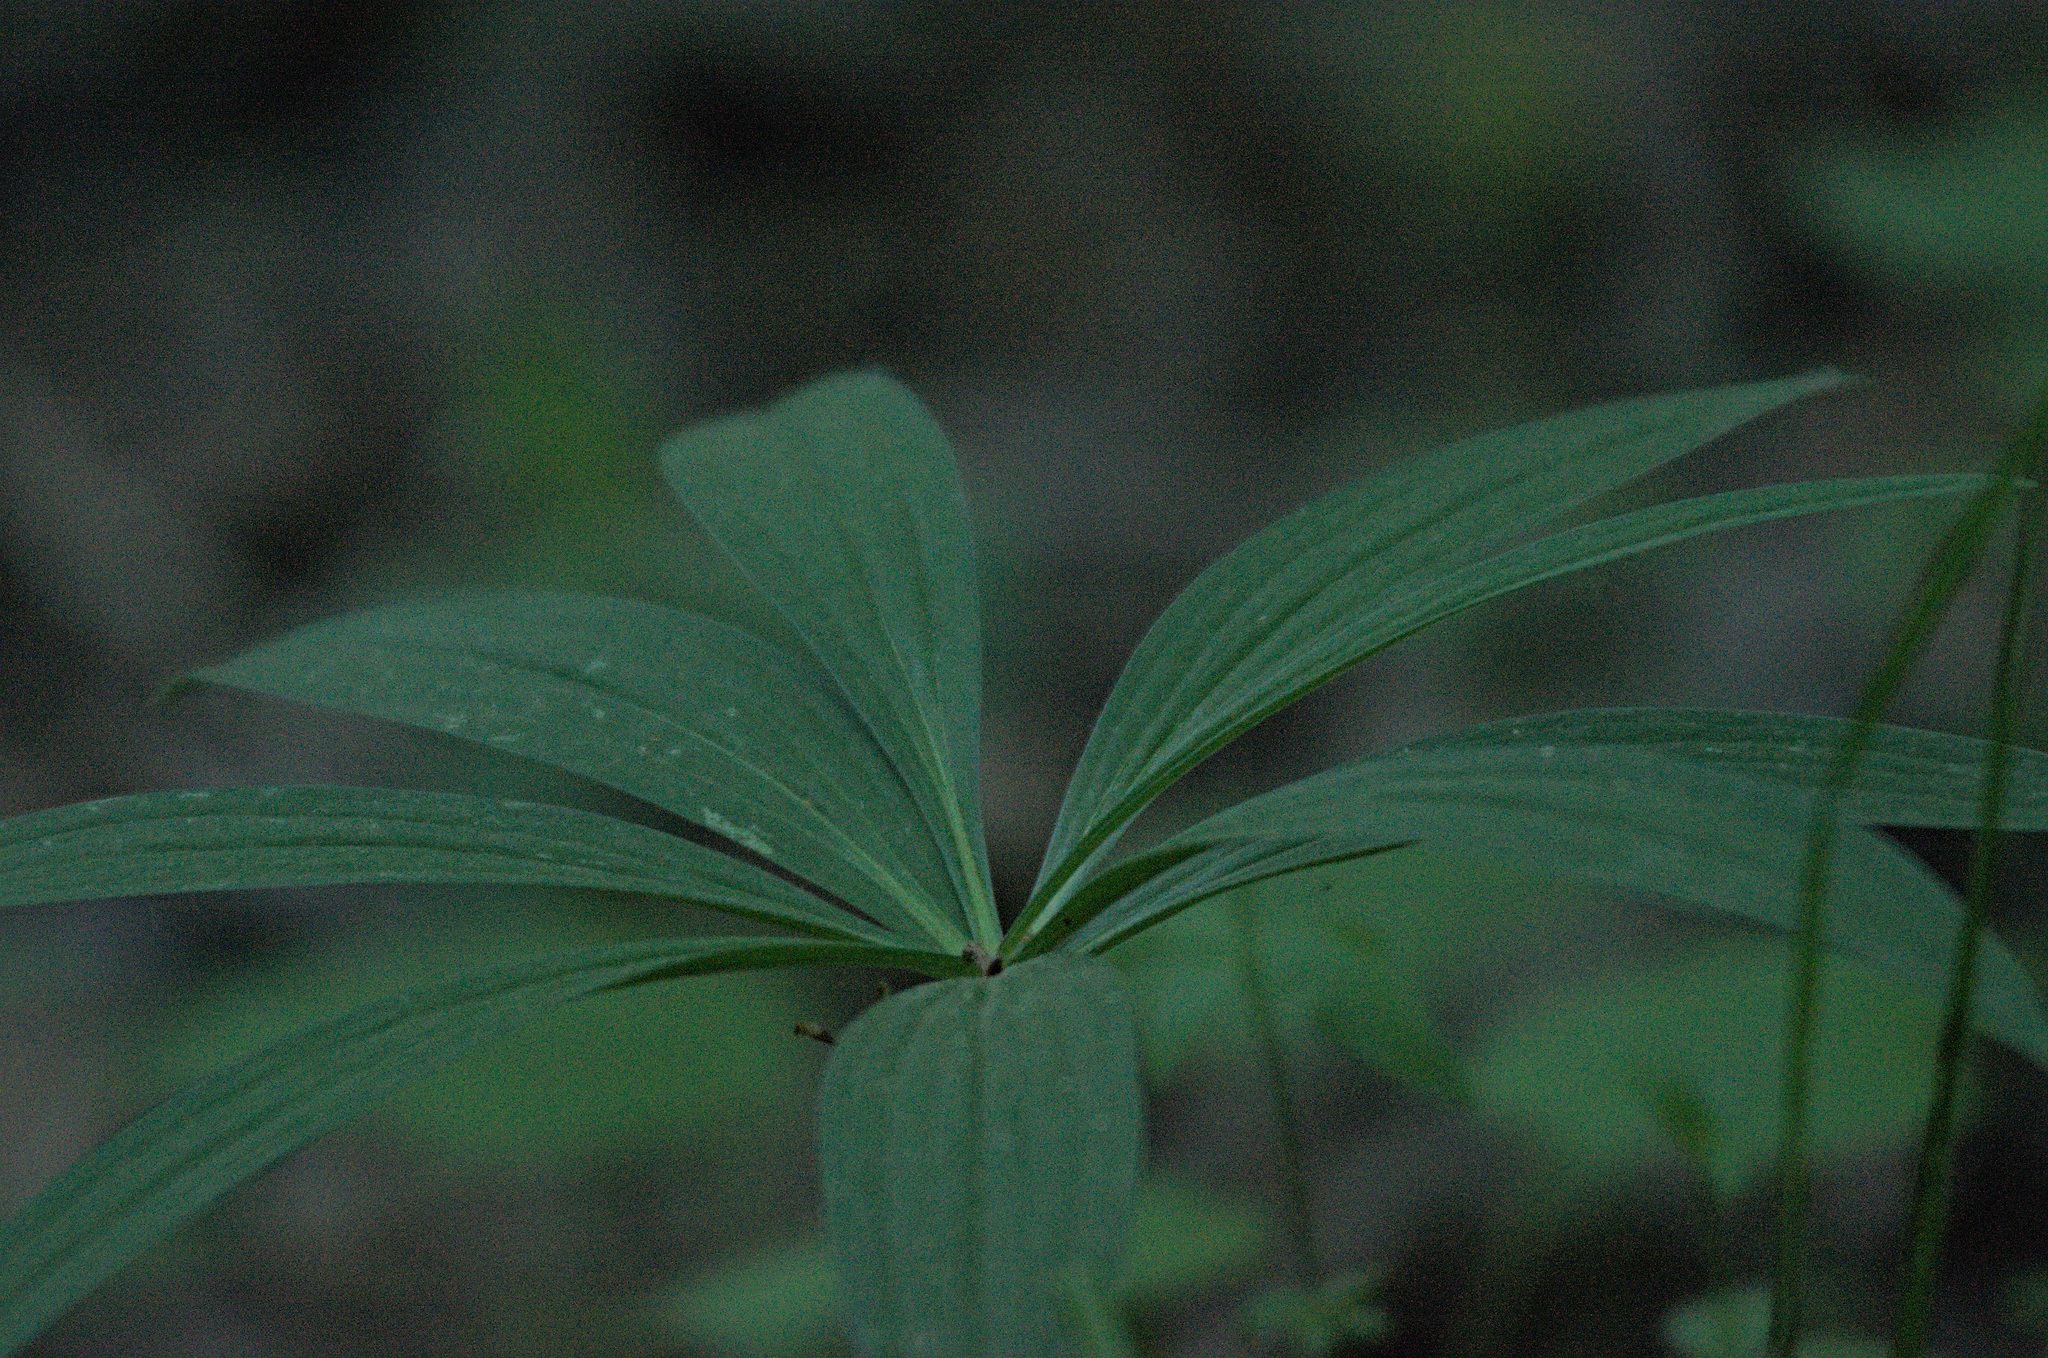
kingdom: Plantae
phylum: Tracheophyta
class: Liliopsida
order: Liliales
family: Liliaceae
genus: Lilium
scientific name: Lilium martagon
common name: Martagon lily
